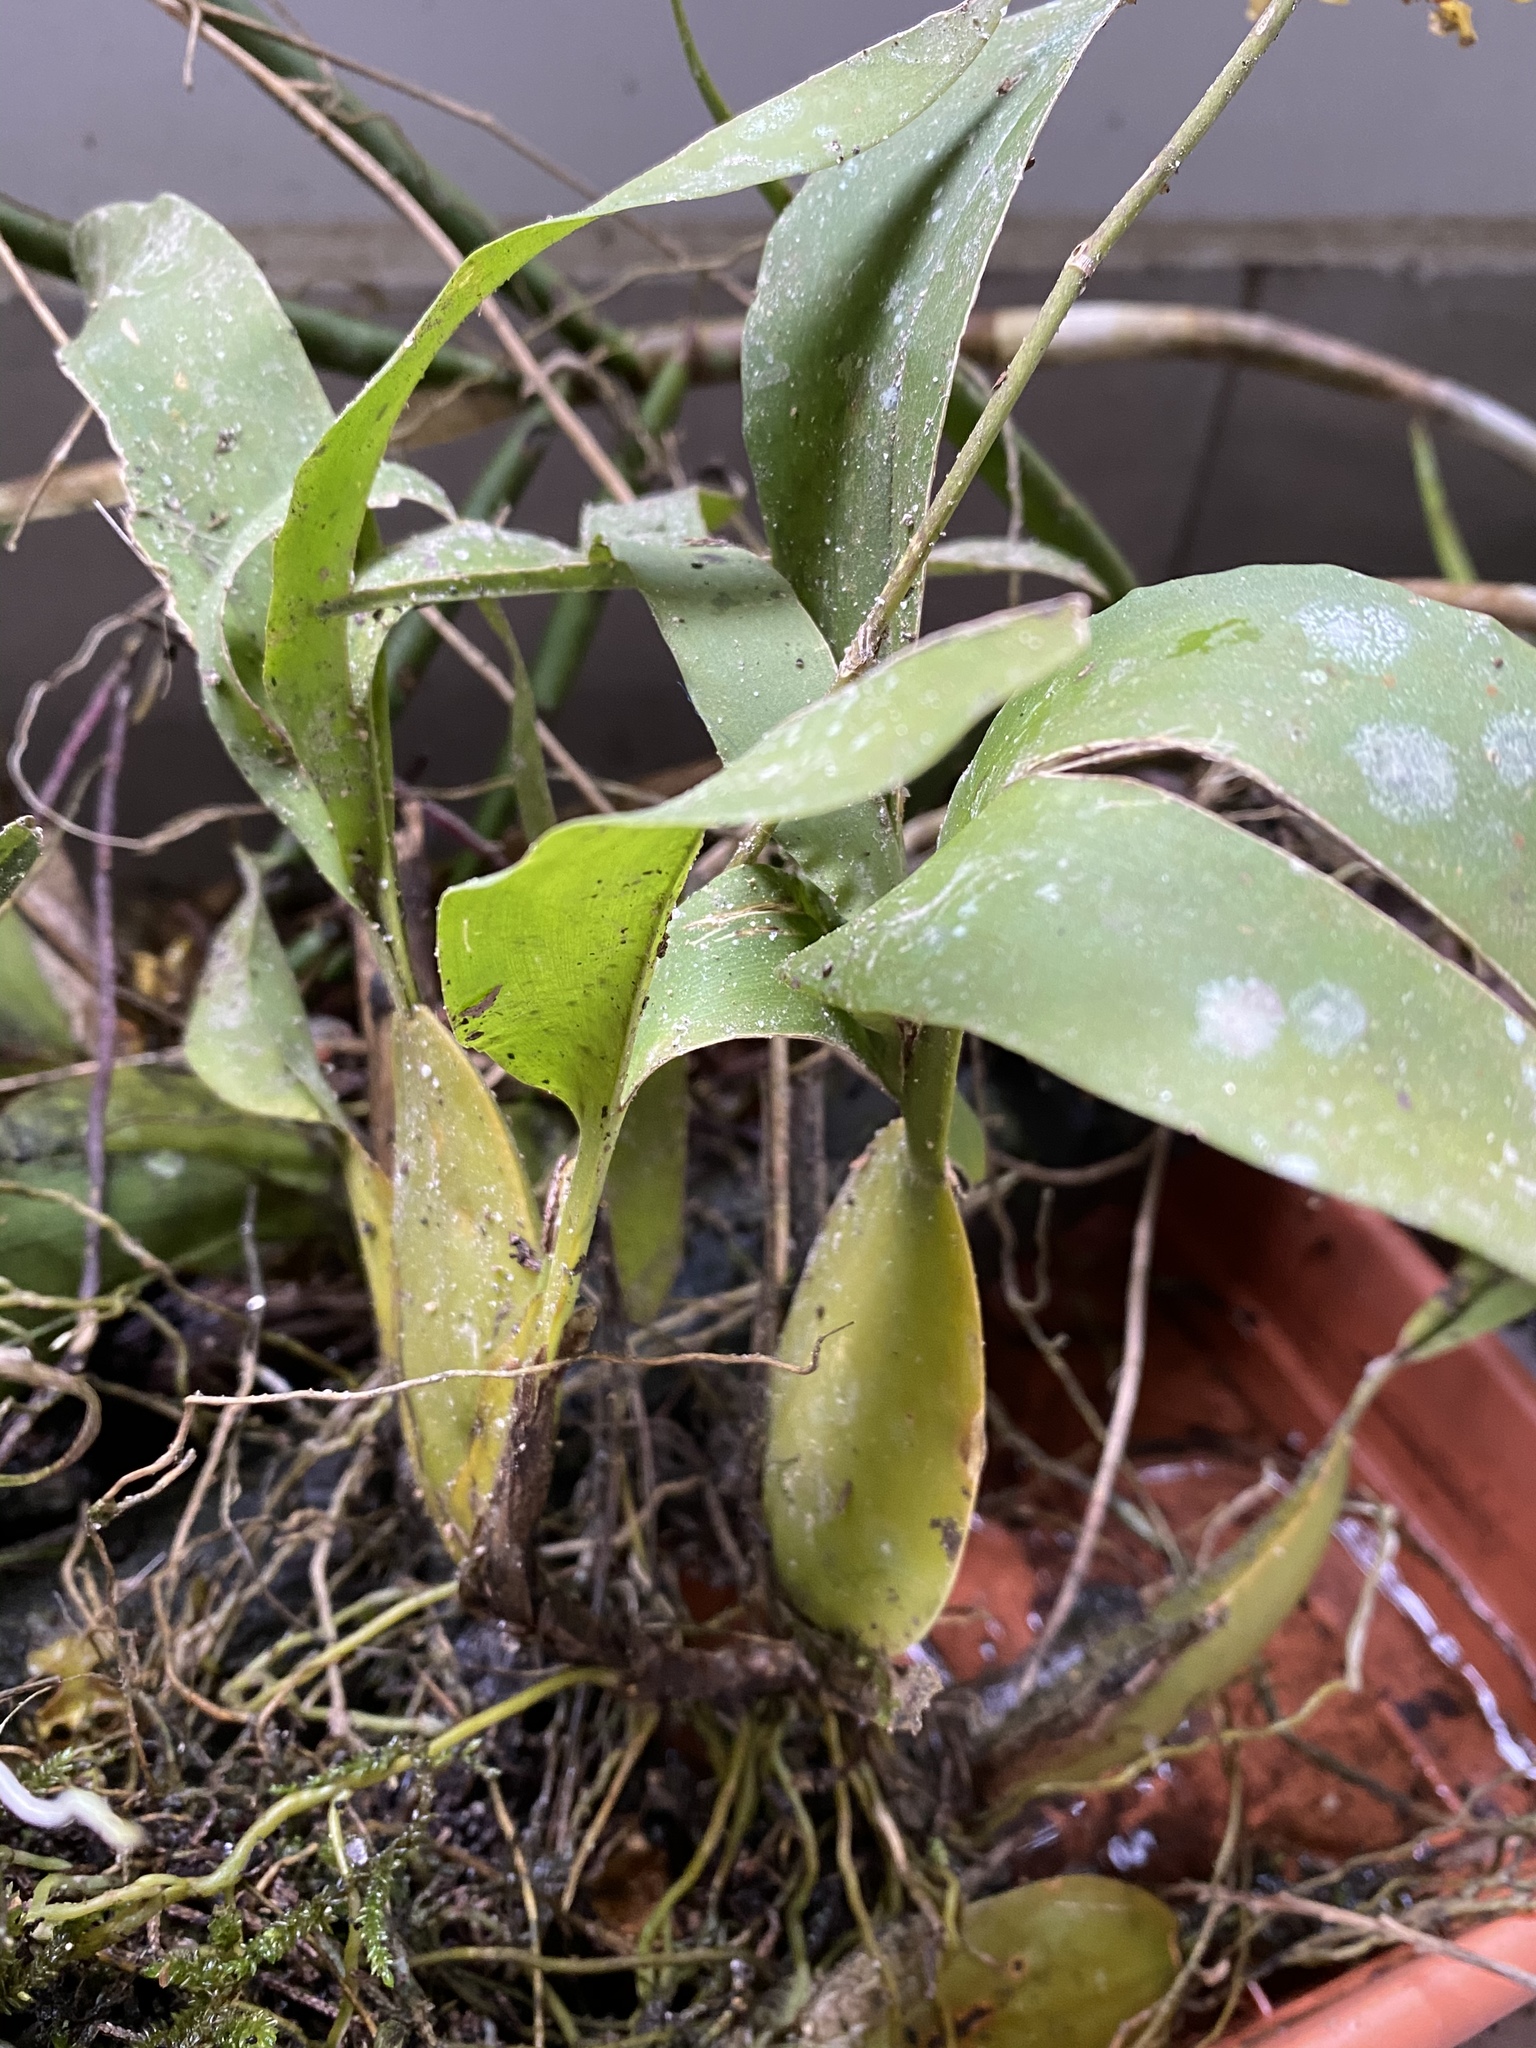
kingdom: Plantae
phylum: Tracheophyta
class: Liliopsida
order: Asparagales
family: Orchidaceae
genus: Oncidium
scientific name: Oncidium pergameneum
